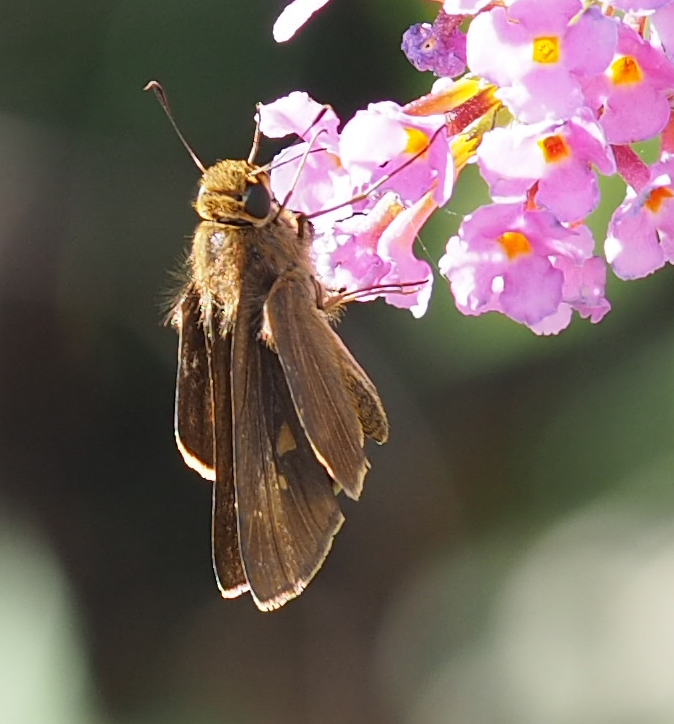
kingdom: Animalia
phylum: Arthropoda
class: Insecta
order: Lepidoptera
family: Hesperiidae
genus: Panoquina
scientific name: Panoquina ocola
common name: Ocola skipper
